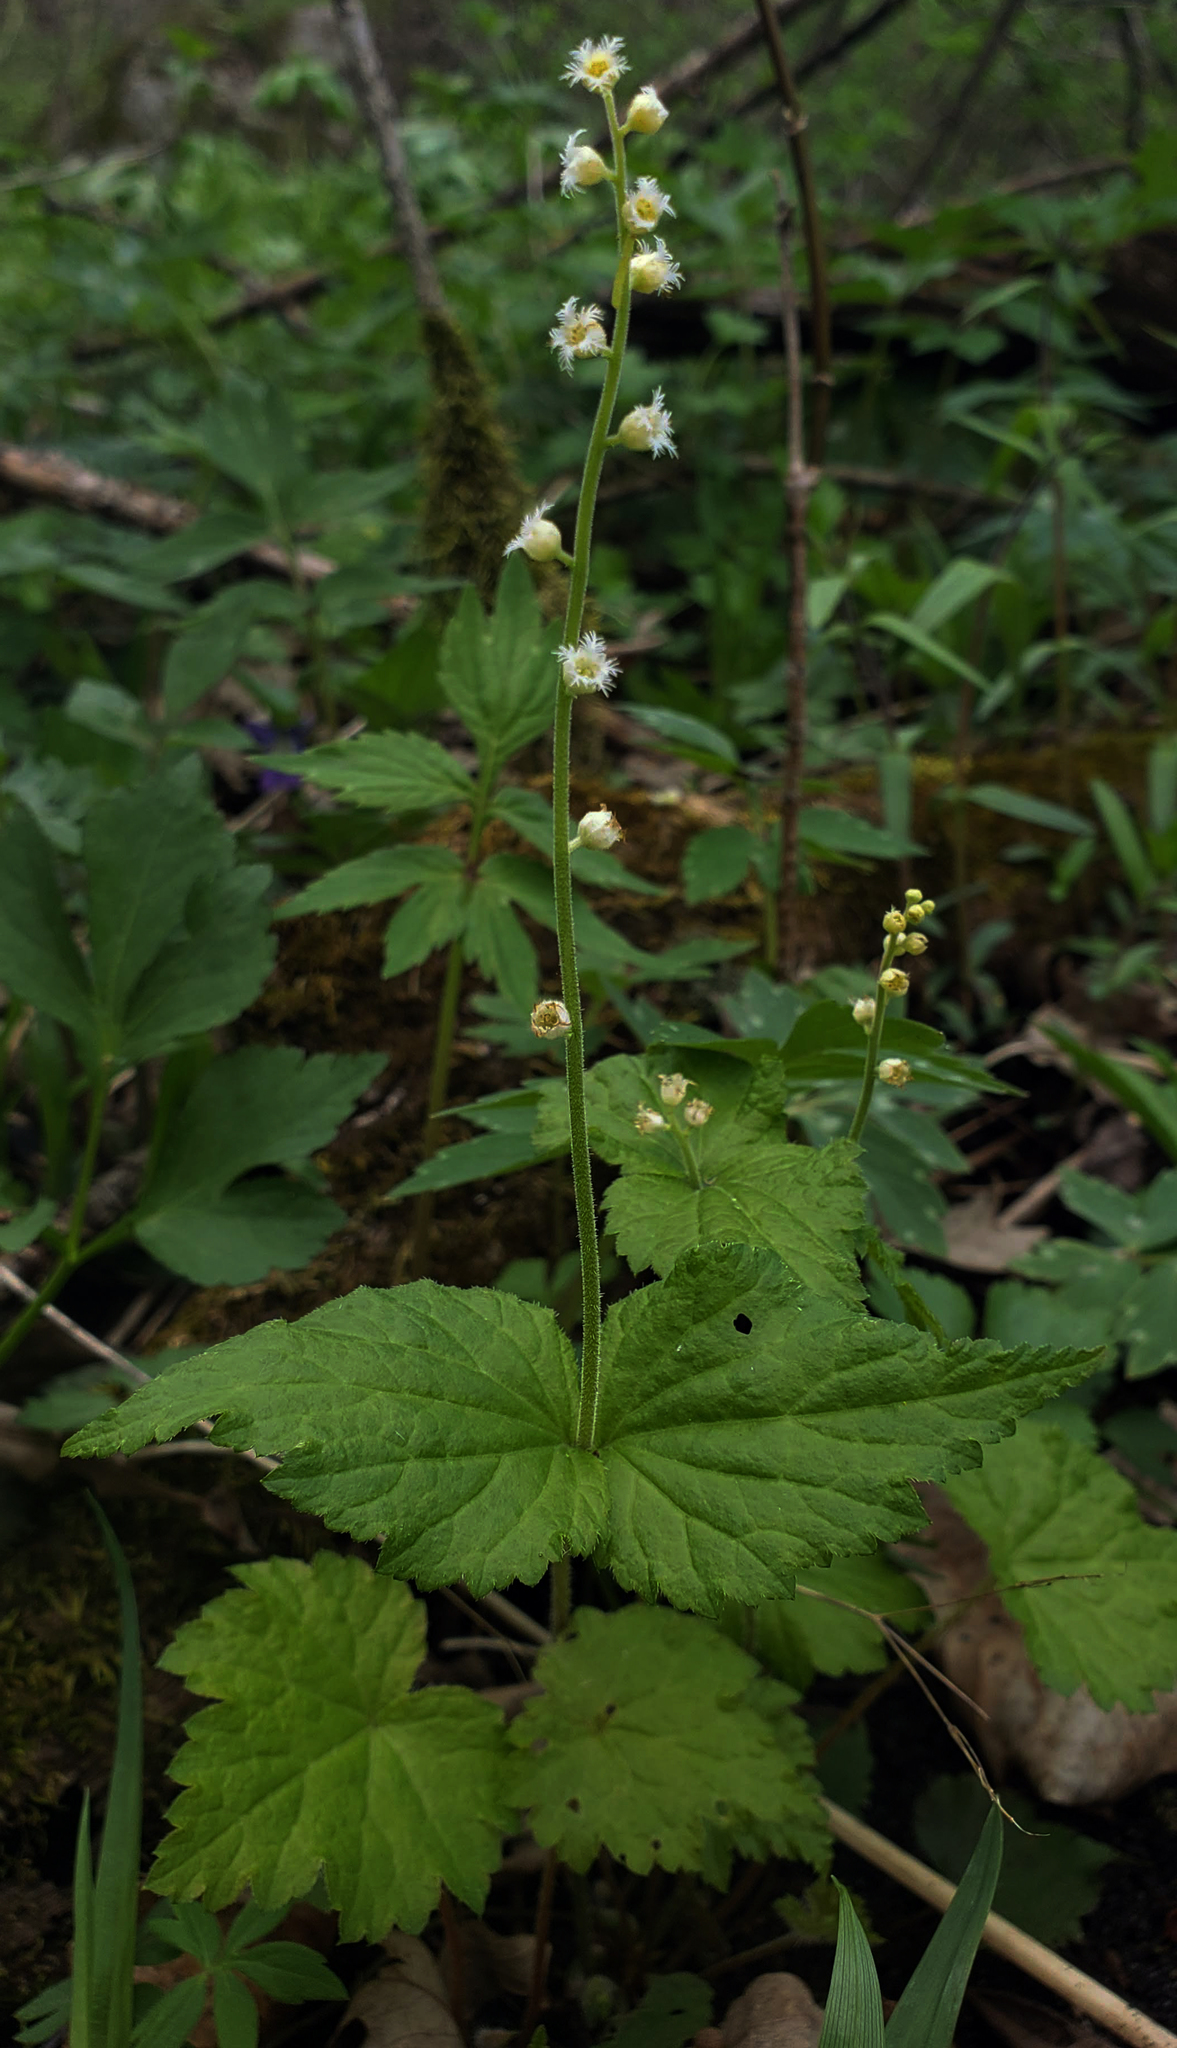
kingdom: Plantae
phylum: Tracheophyta
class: Magnoliopsida
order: Saxifragales
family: Saxifragaceae
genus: Mitella
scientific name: Mitella diphylla
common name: Coolwort
